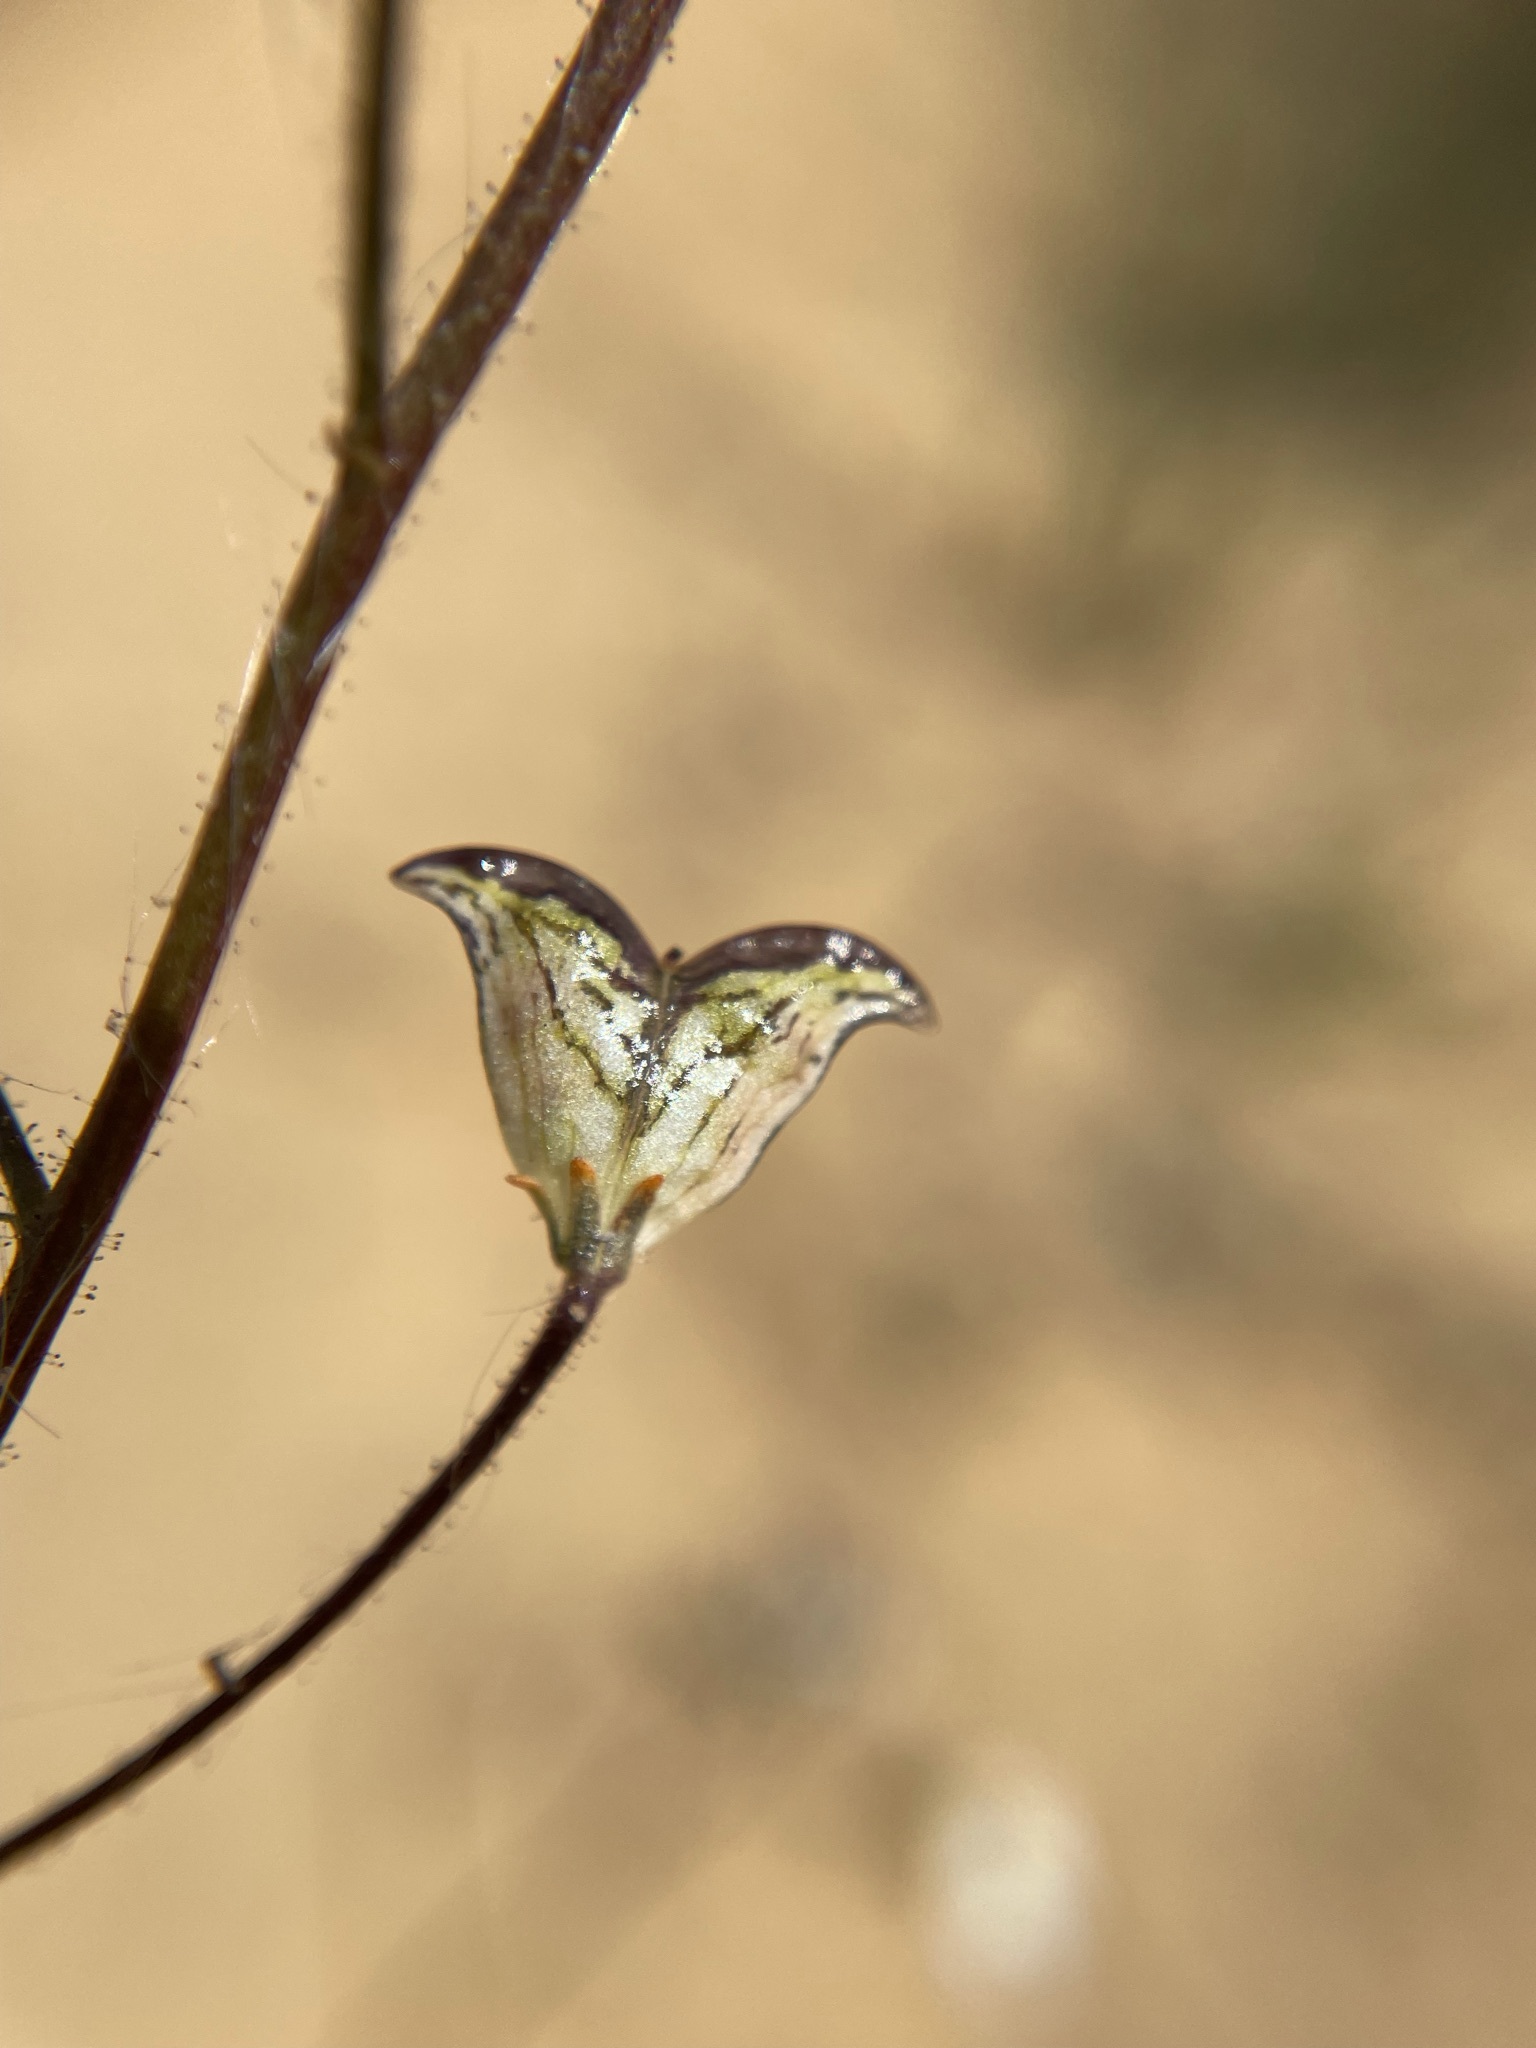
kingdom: Plantae
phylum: Tracheophyta
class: Magnoliopsida
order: Lamiales
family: Scrophulariaceae
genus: Nemesia
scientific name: Nemesia bicornis
